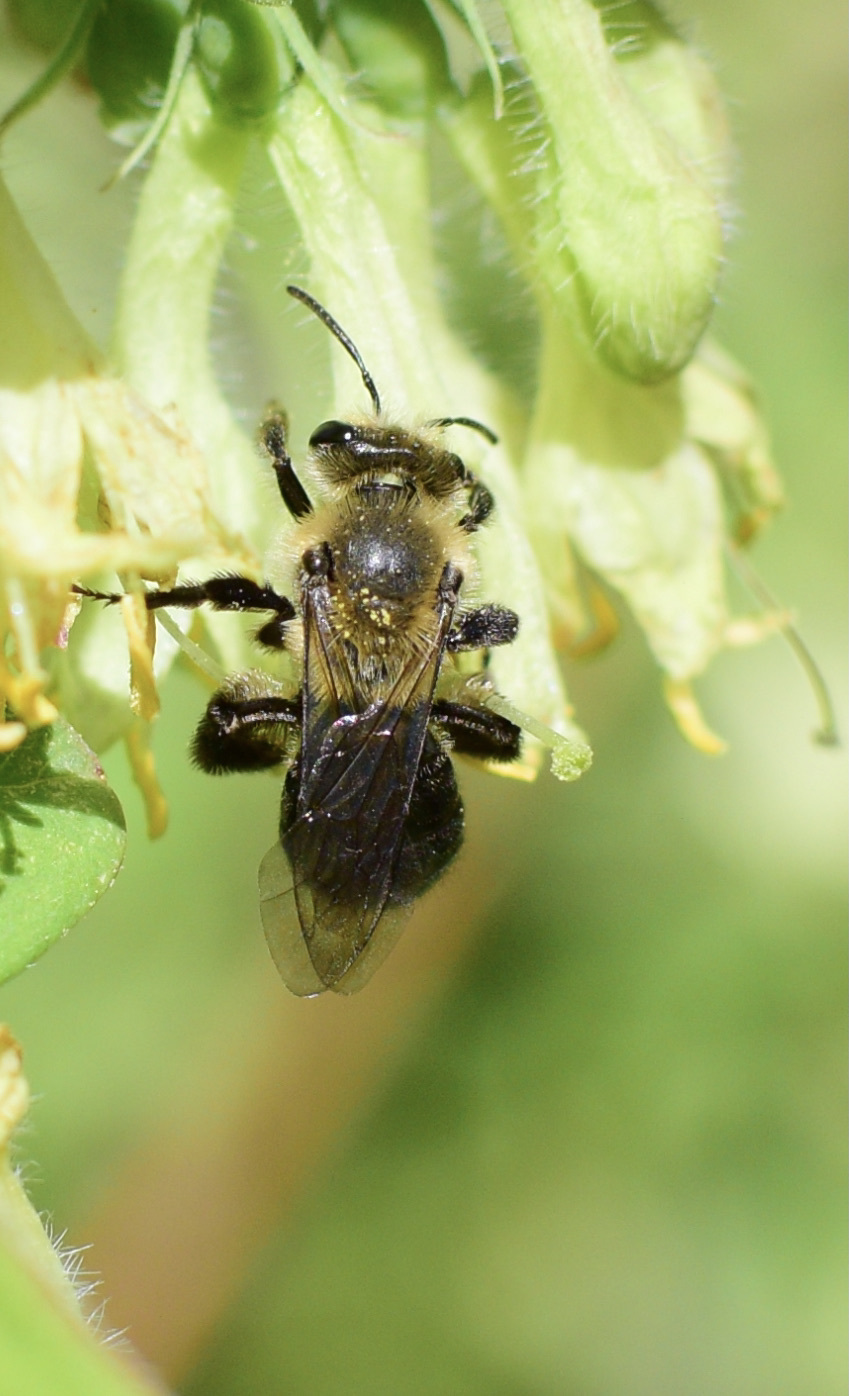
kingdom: Animalia
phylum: Arthropoda
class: Insecta
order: Hymenoptera
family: Andrenidae
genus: Andrena
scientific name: Andrena vicina
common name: Neighborly mining bee
